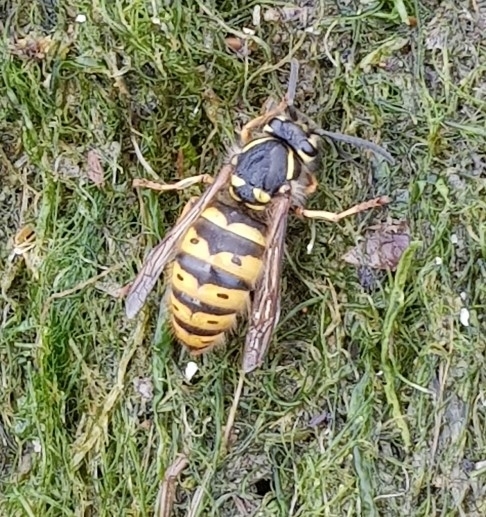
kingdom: Animalia
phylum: Arthropoda
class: Insecta
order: Hymenoptera
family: Vespidae
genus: Vespula
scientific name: Vespula vulgaris
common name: Common wasp
